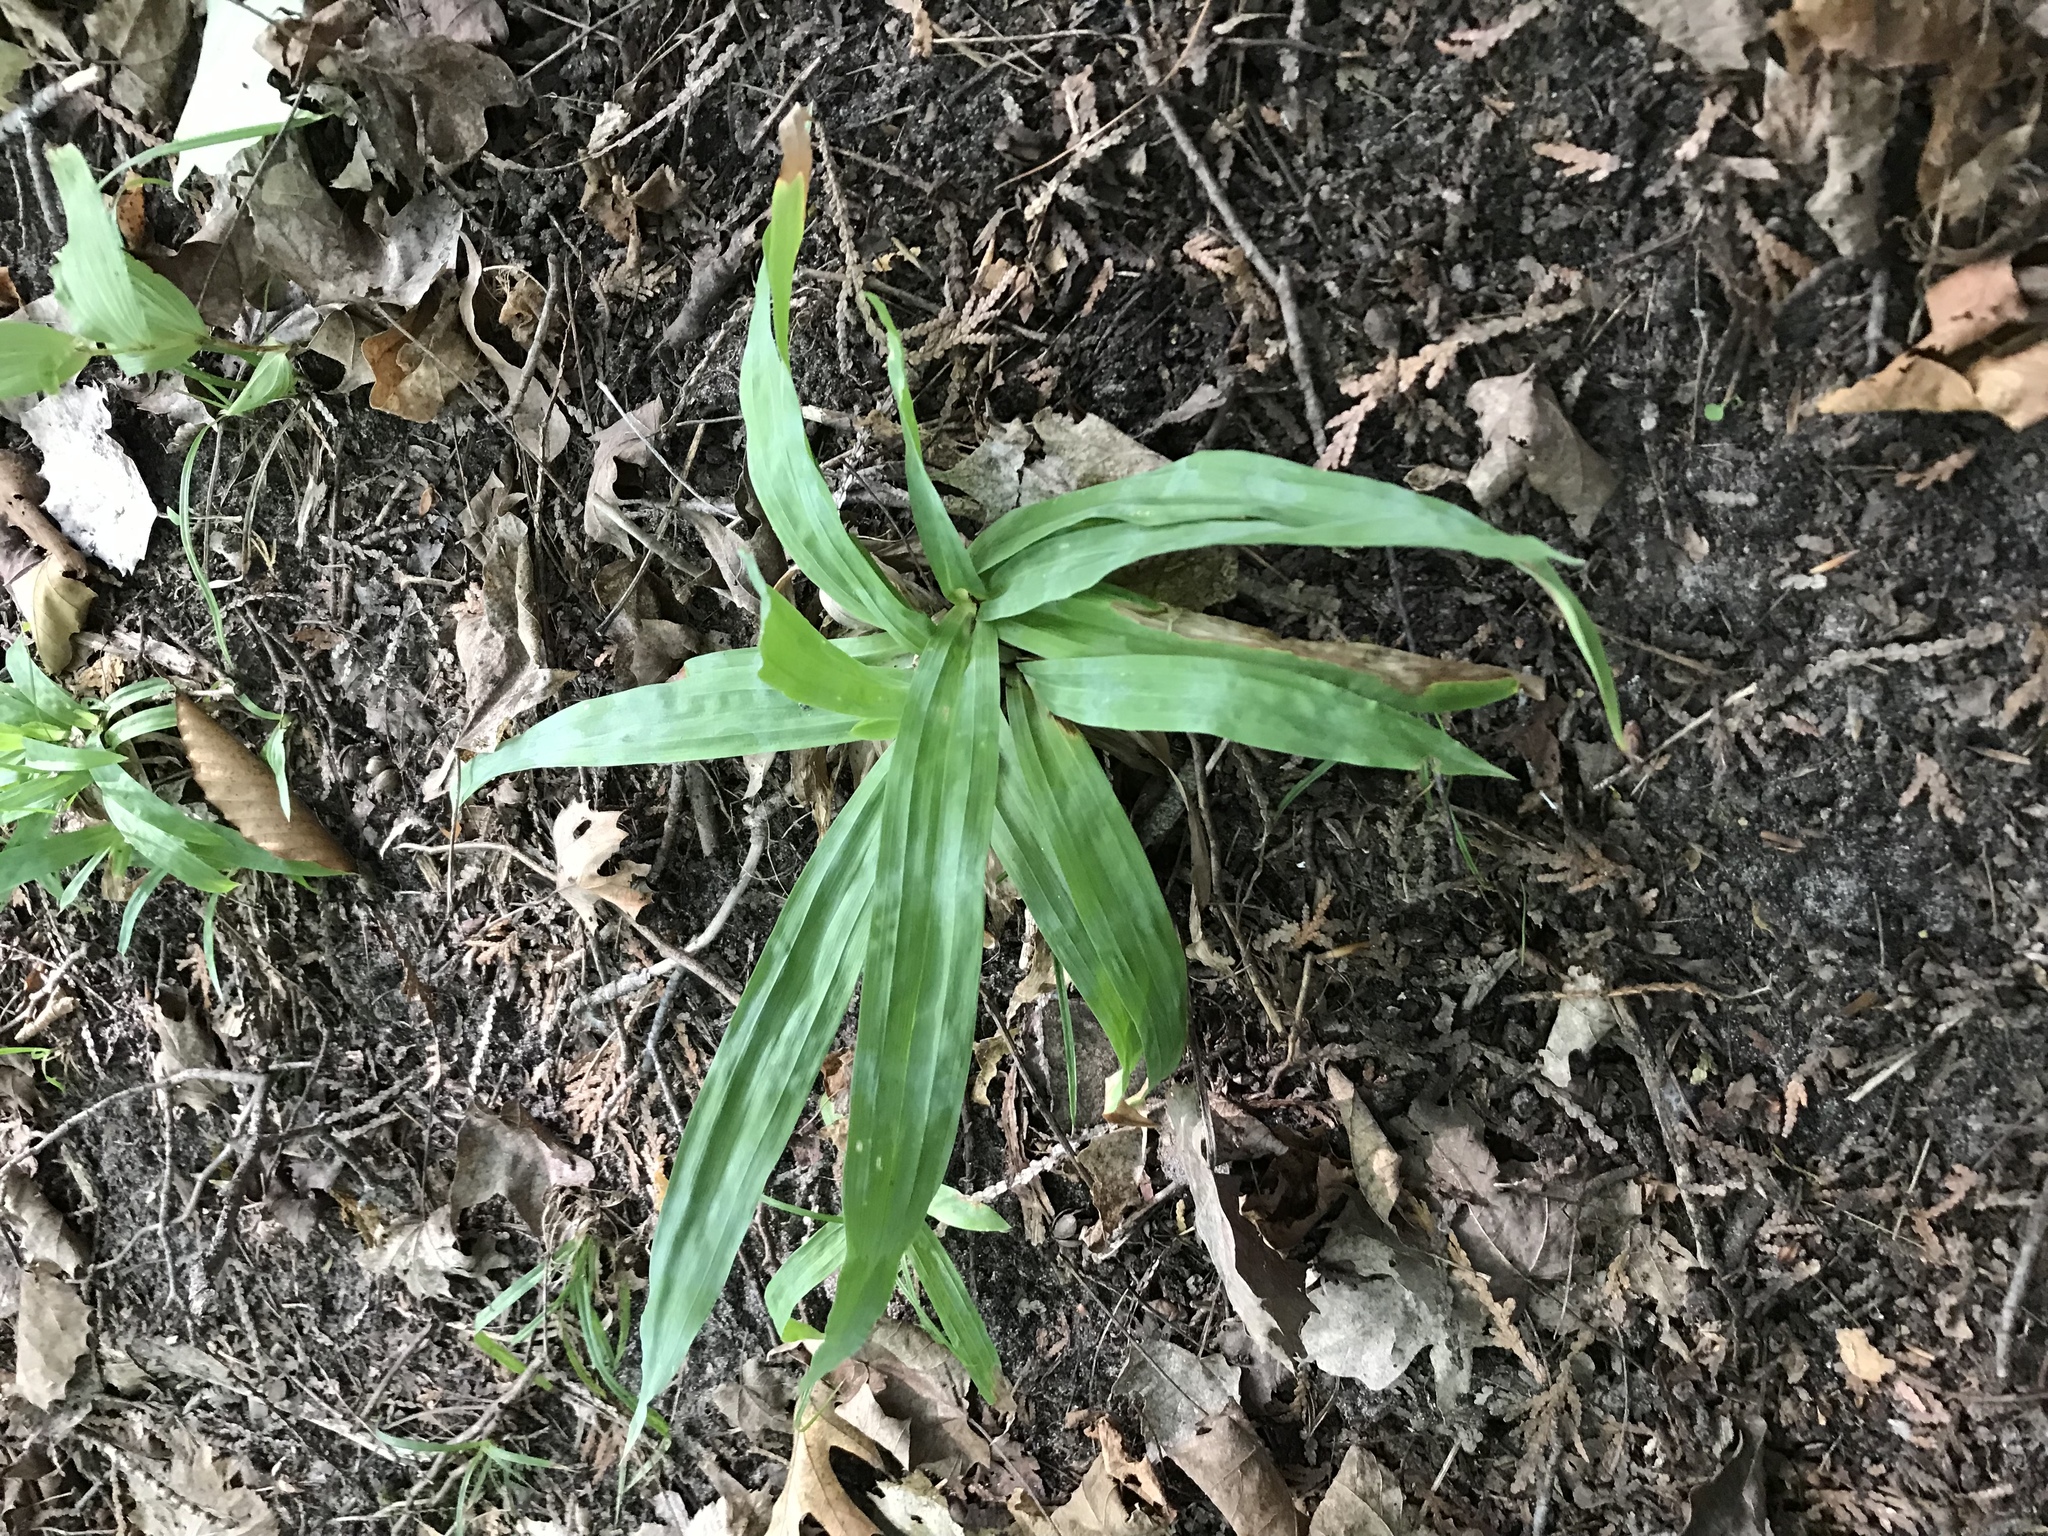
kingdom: Plantae
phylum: Tracheophyta
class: Liliopsida
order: Poales
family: Cyperaceae
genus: Carex
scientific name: Carex platyphylla
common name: Broad-leaved sedge
